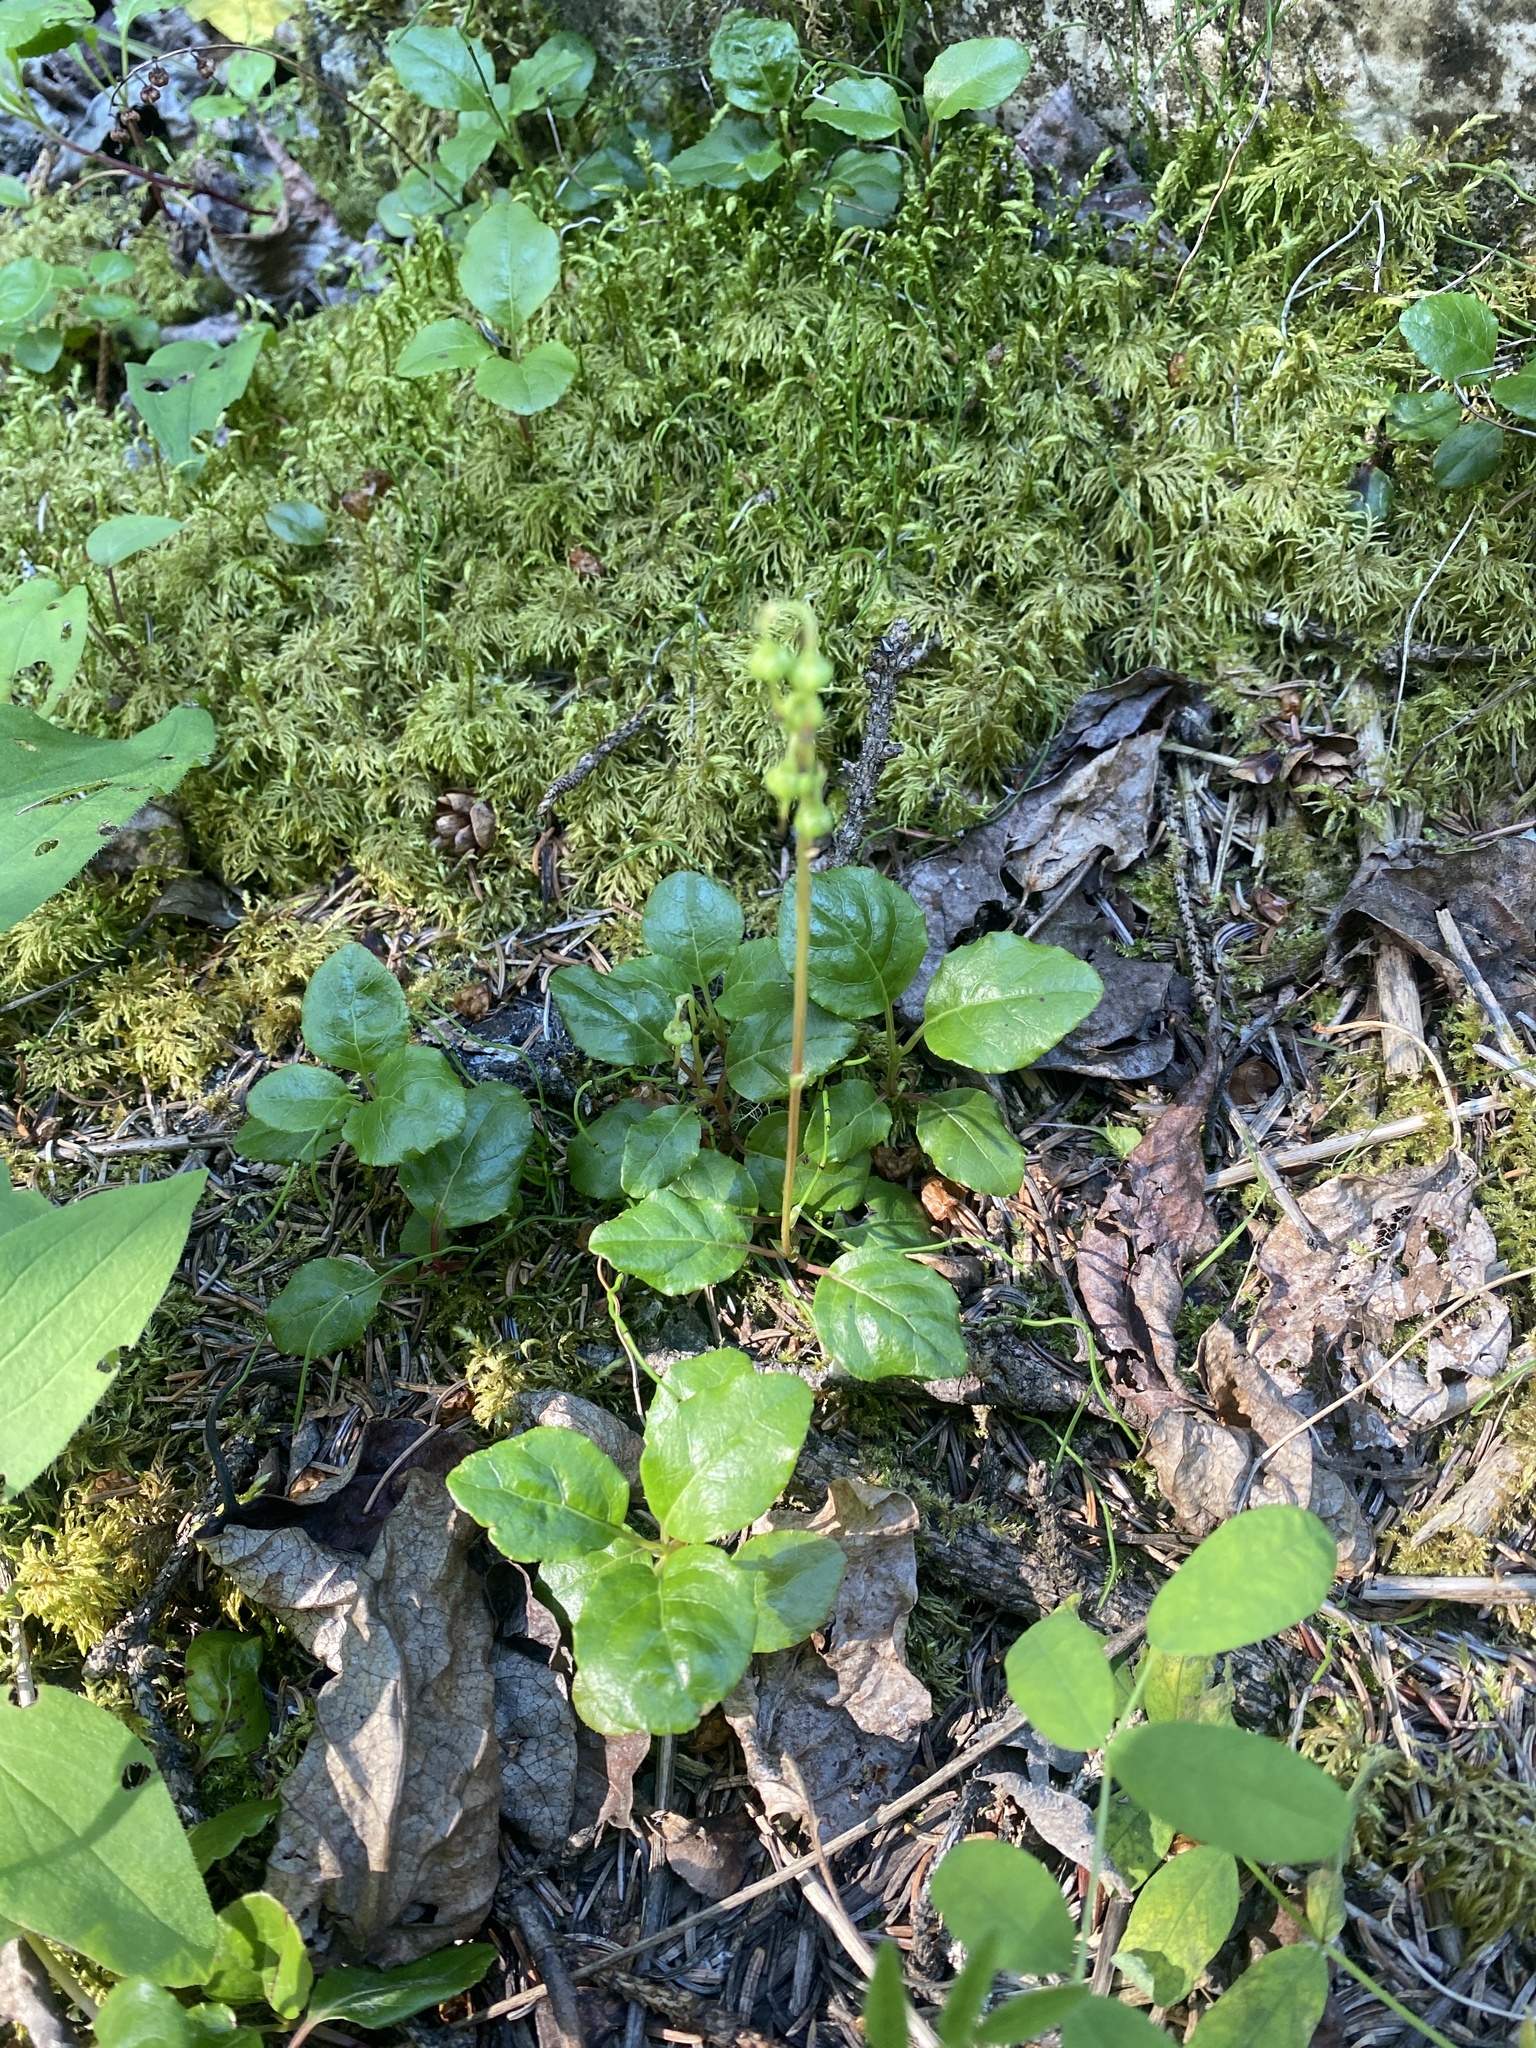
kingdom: Plantae
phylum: Tracheophyta
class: Magnoliopsida
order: Ericales
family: Ericaceae
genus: Orthilia
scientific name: Orthilia secunda
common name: One-sided orthilia
